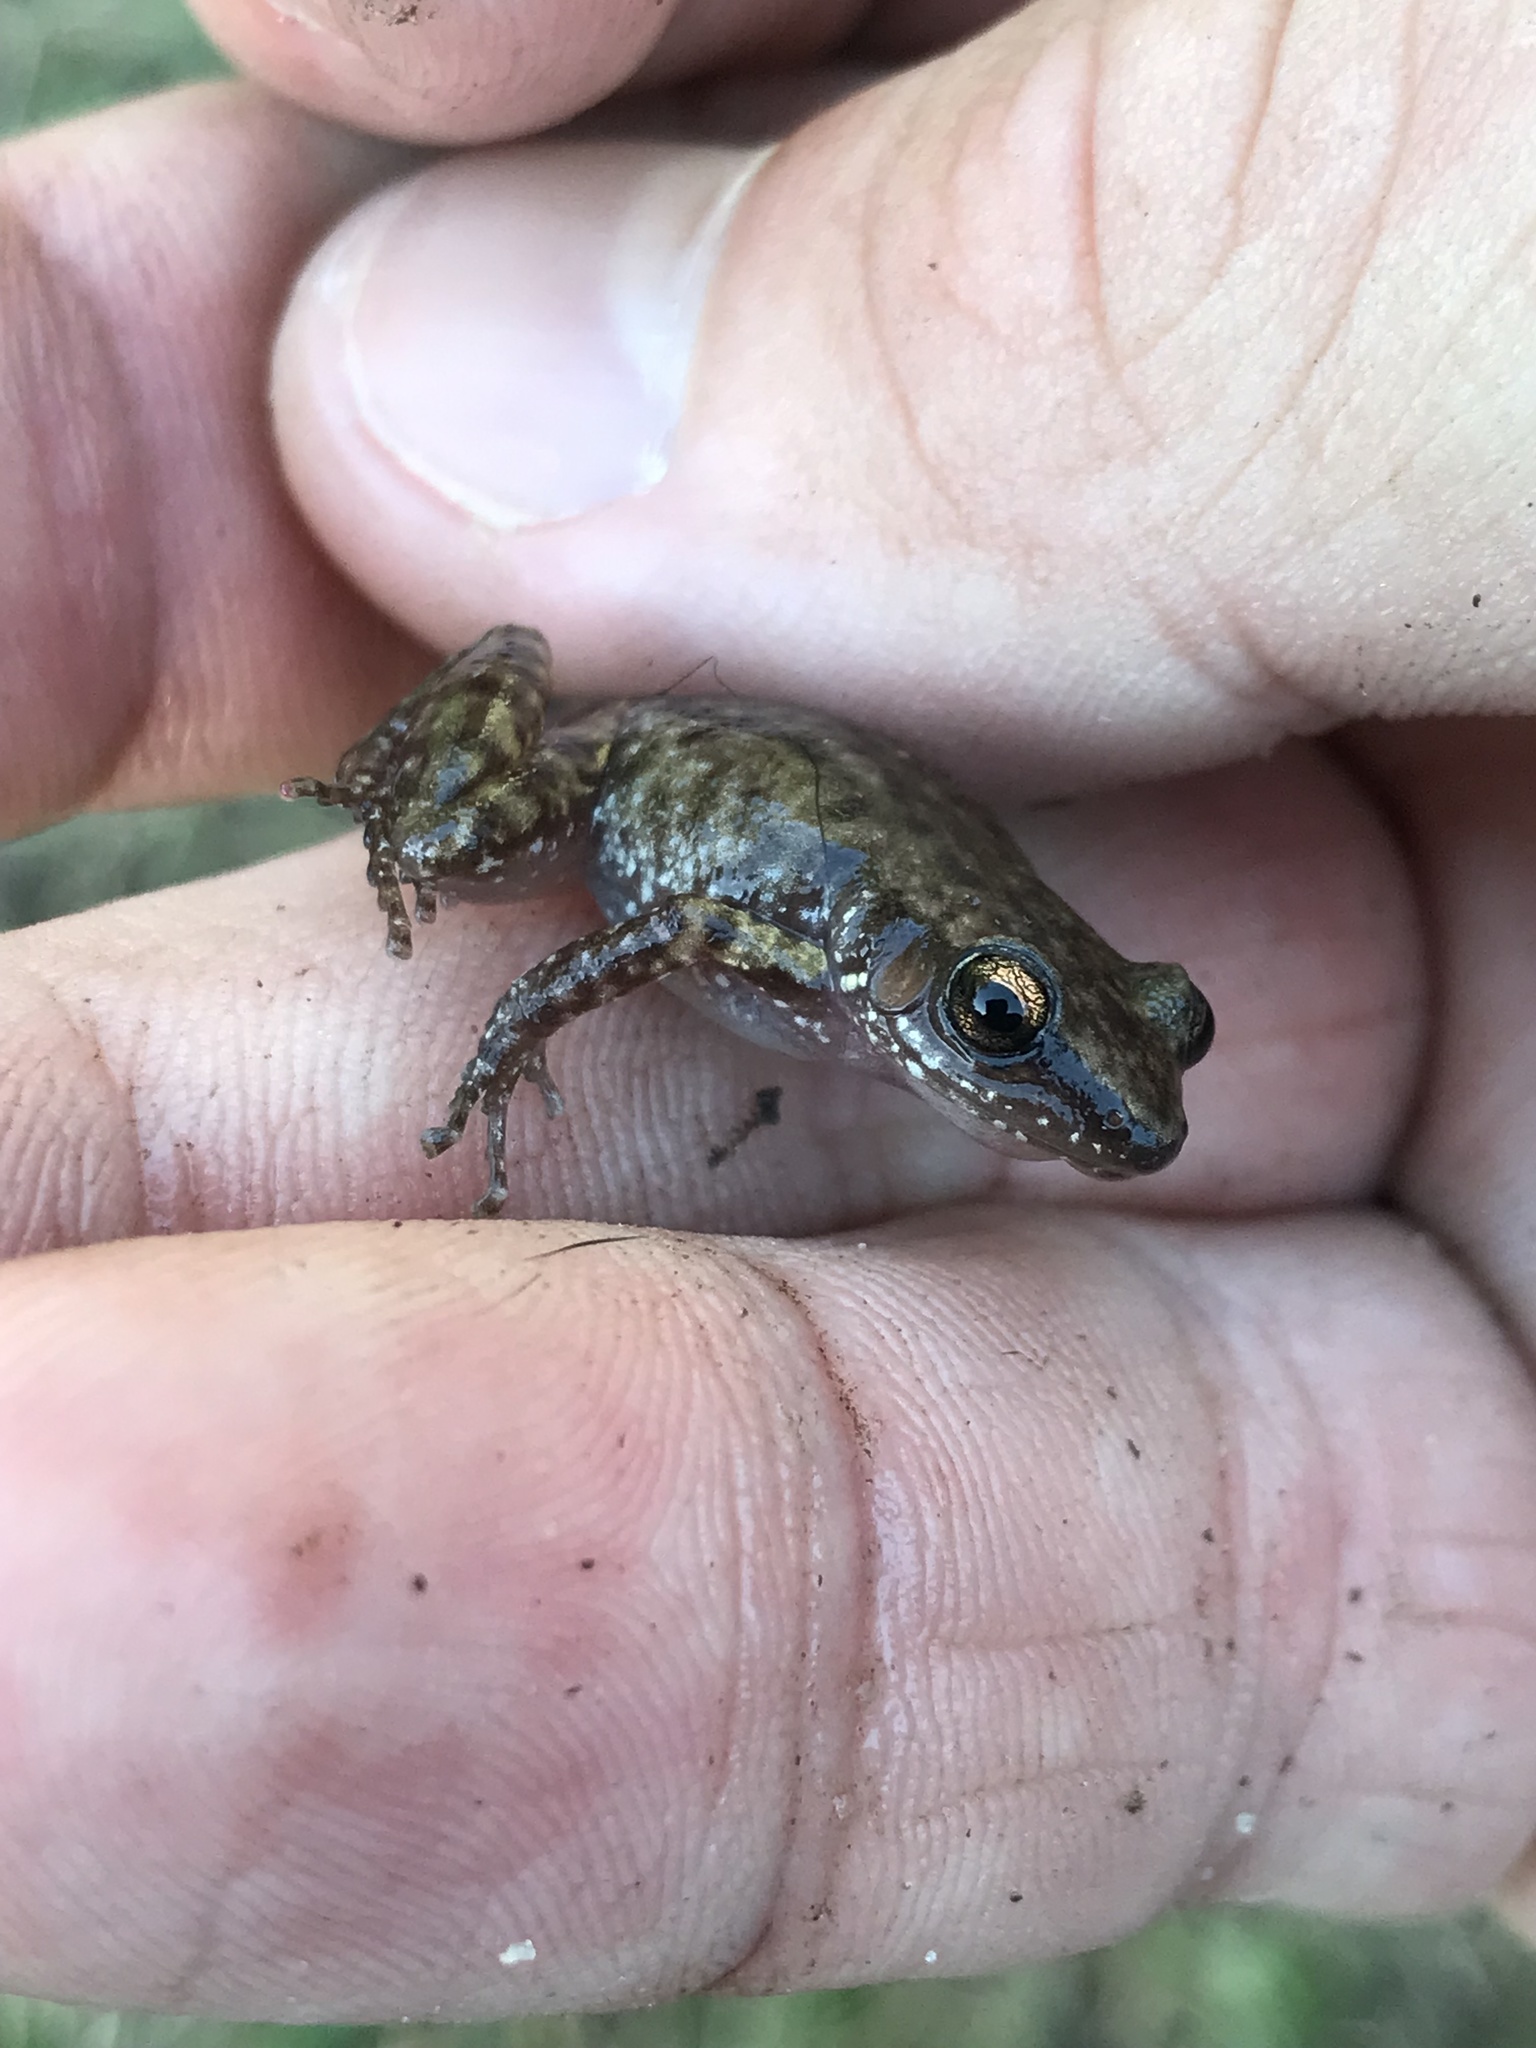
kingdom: Animalia
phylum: Chordata
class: Amphibia
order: Anura
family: Eleutherodactylidae
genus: Eleutherodactylus
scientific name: Eleutherodactylus campi
